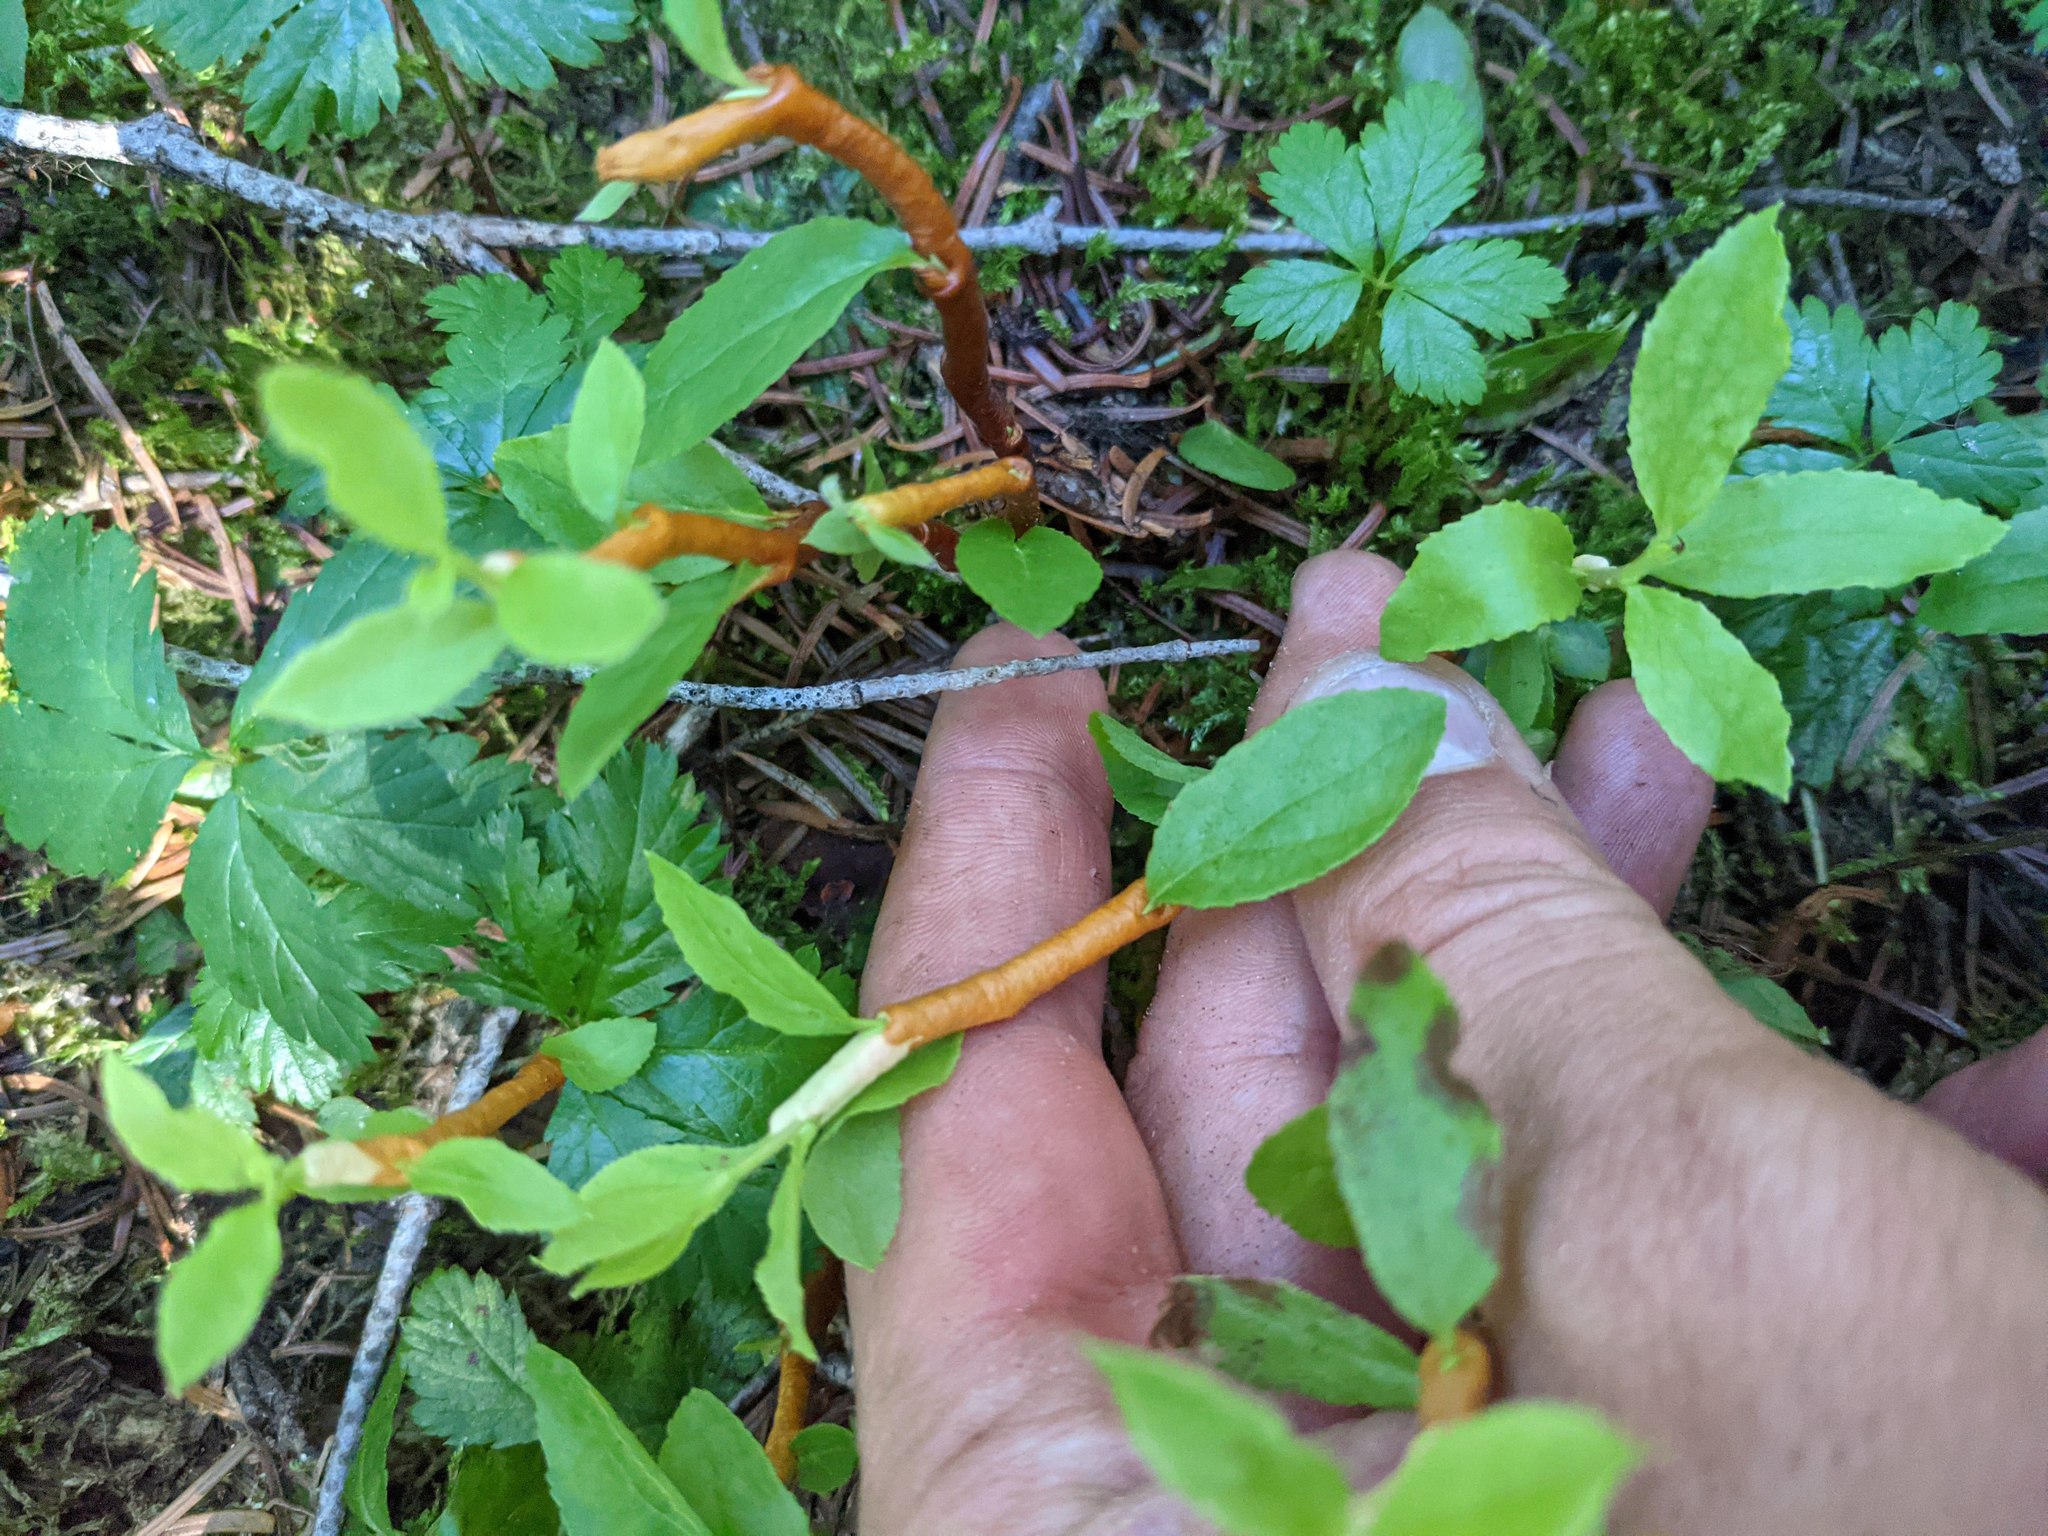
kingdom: Fungi
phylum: Basidiomycota
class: Pucciniomycetes
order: Pucciniales
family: Pucciniastraceae
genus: Calyptospora
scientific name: Calyptospora
